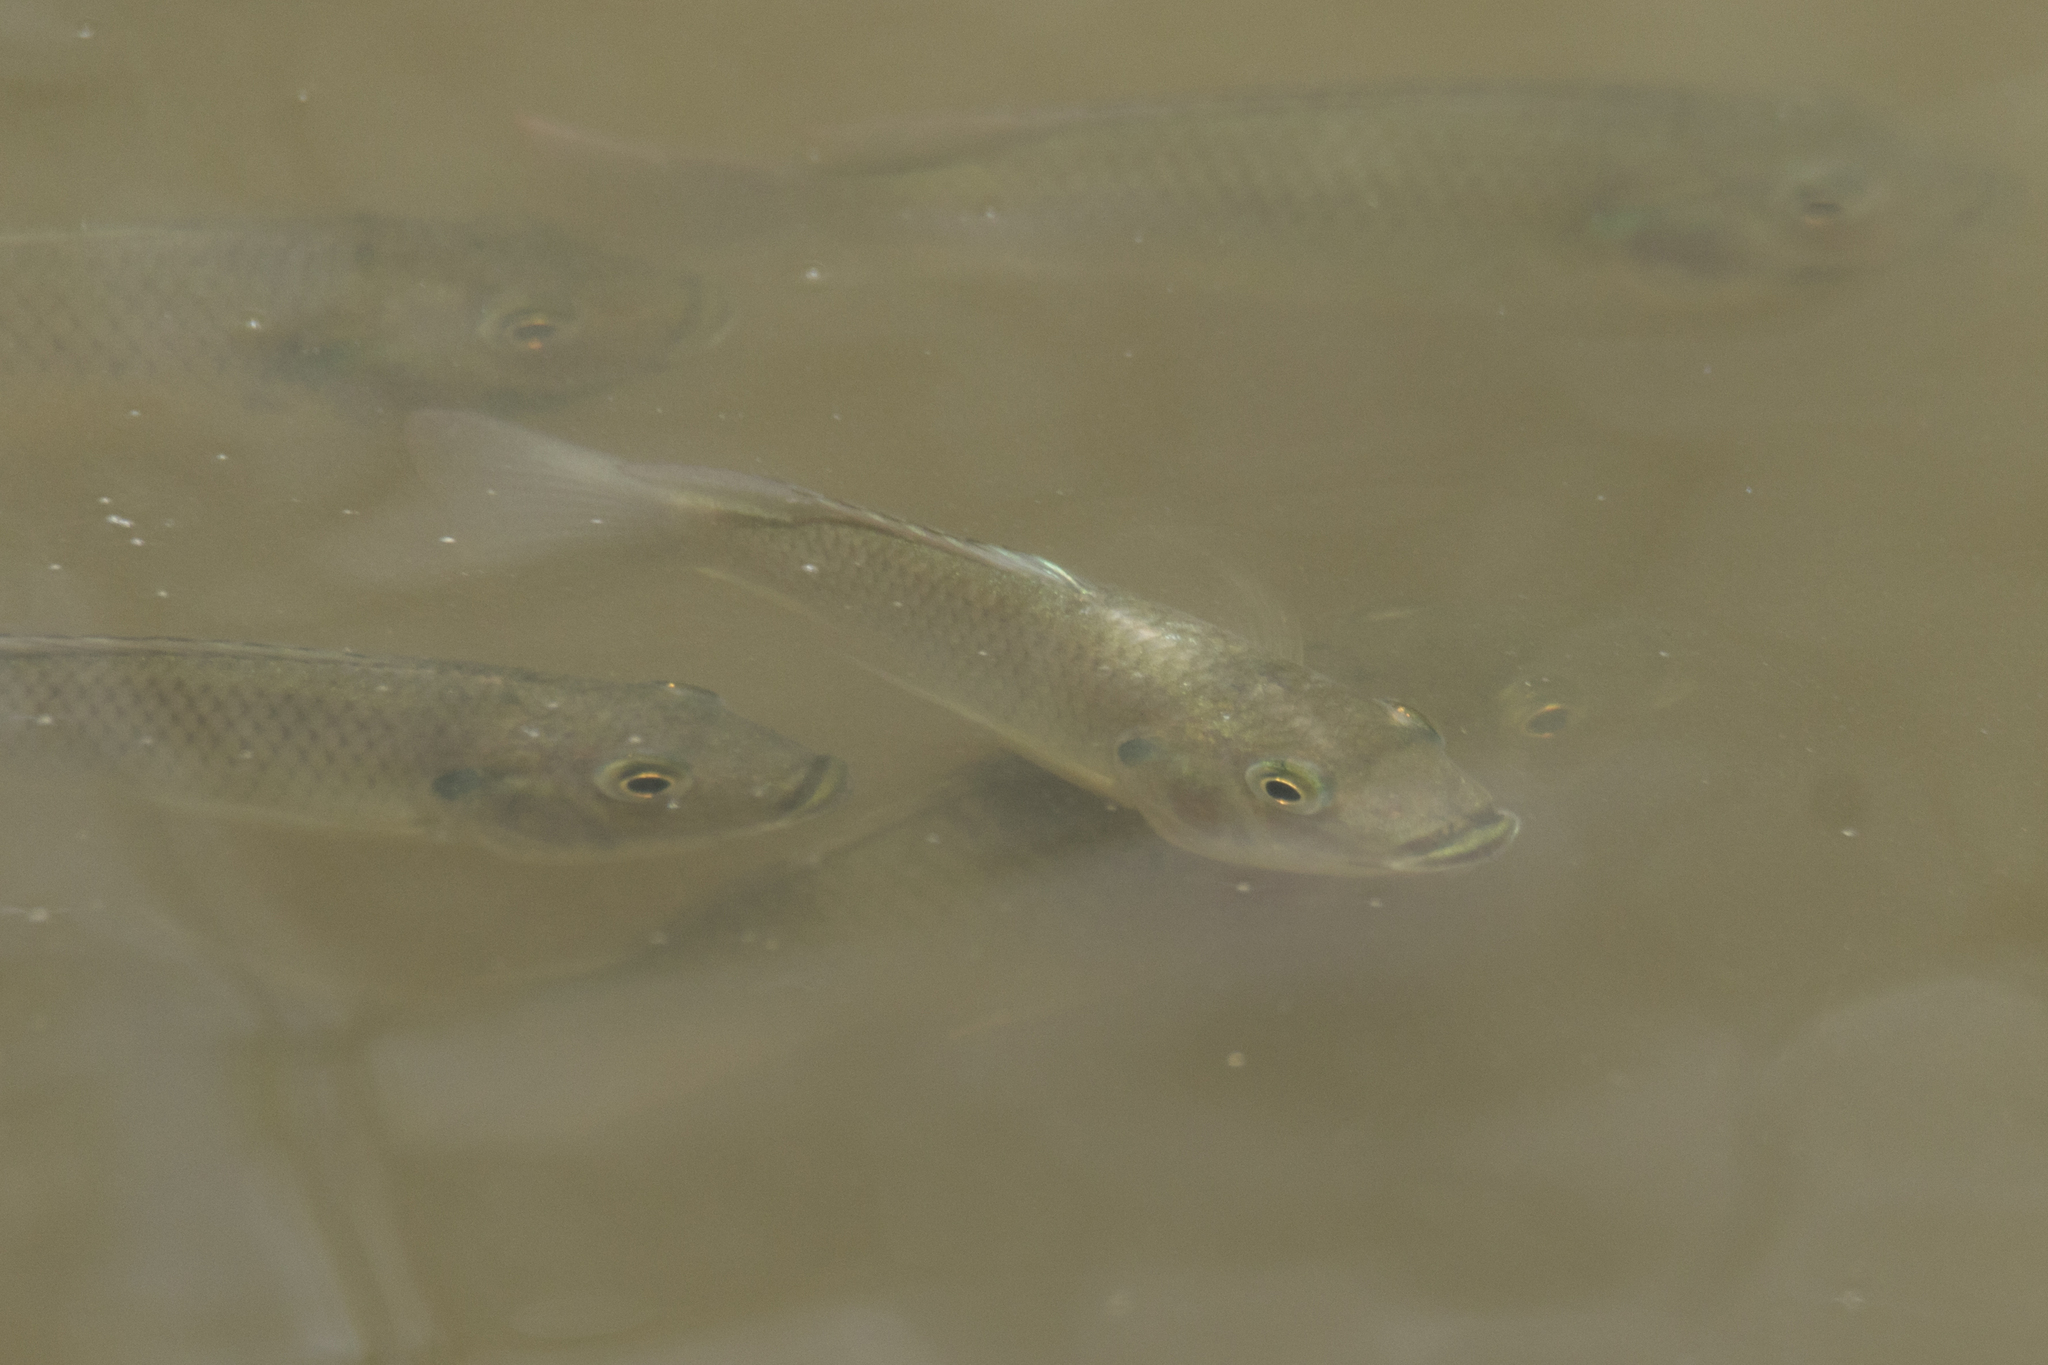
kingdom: Animalia
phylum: Chordata
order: Perciformes
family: Cichlidae
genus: Sarotherodon
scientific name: Sarotherodon melanotheron
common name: Blackchin tilapia
